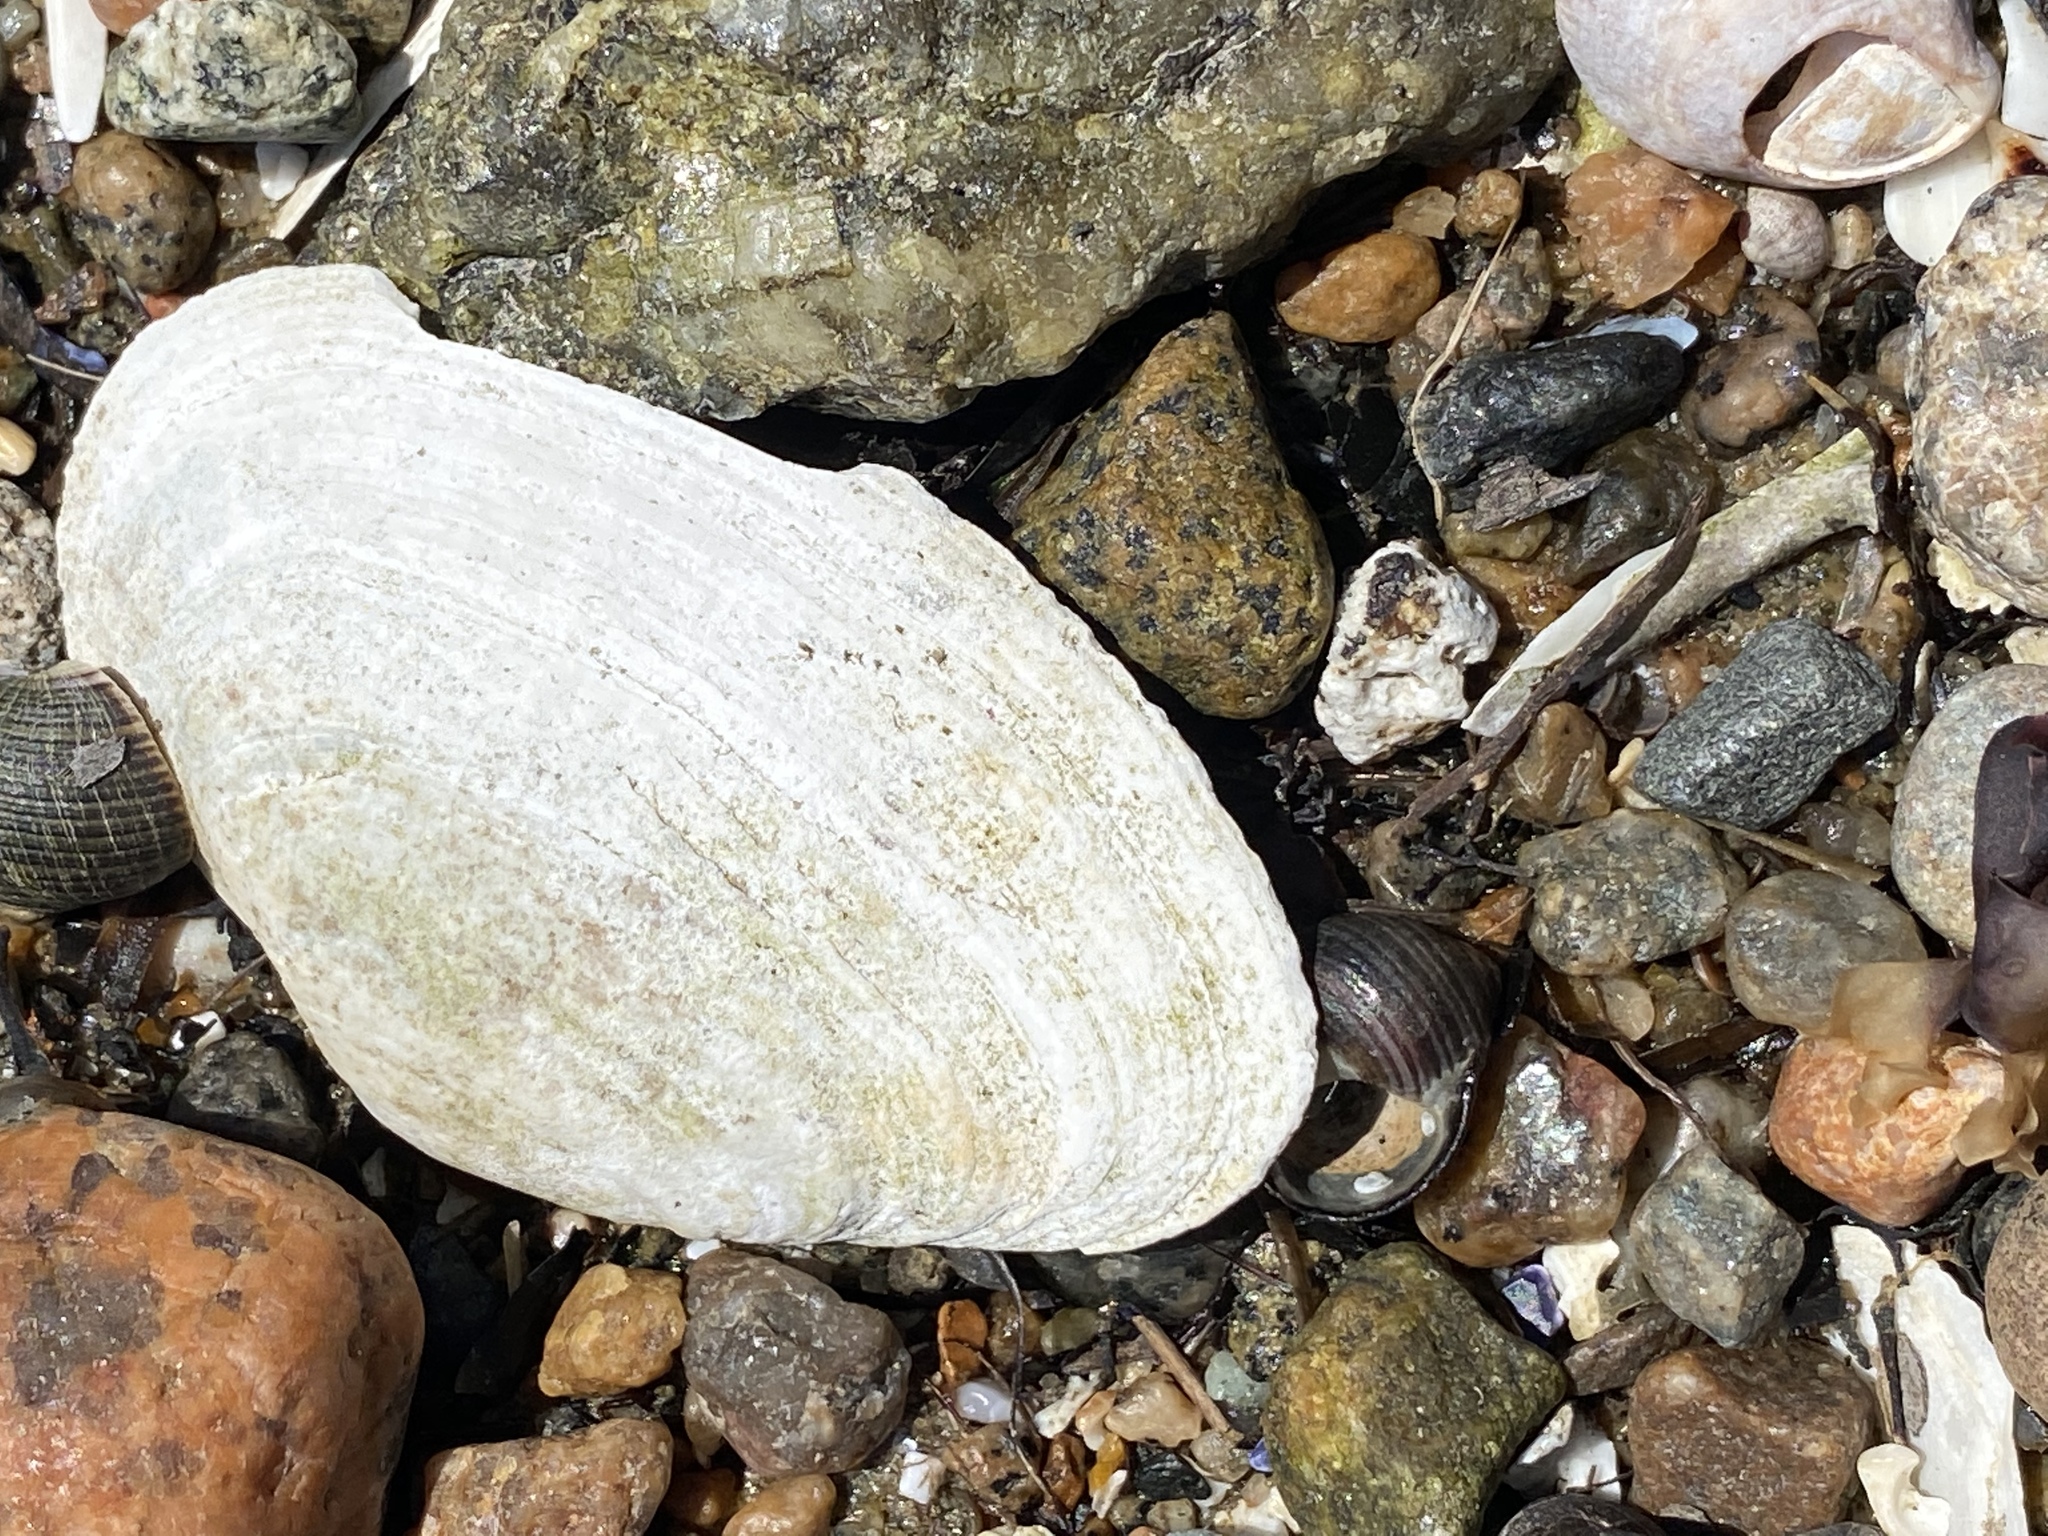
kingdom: Animalia
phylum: Mollusca
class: Bivalvia
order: Myida
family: Myidae
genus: Mya
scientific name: Mya arenaria
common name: Soft-shelled clam
